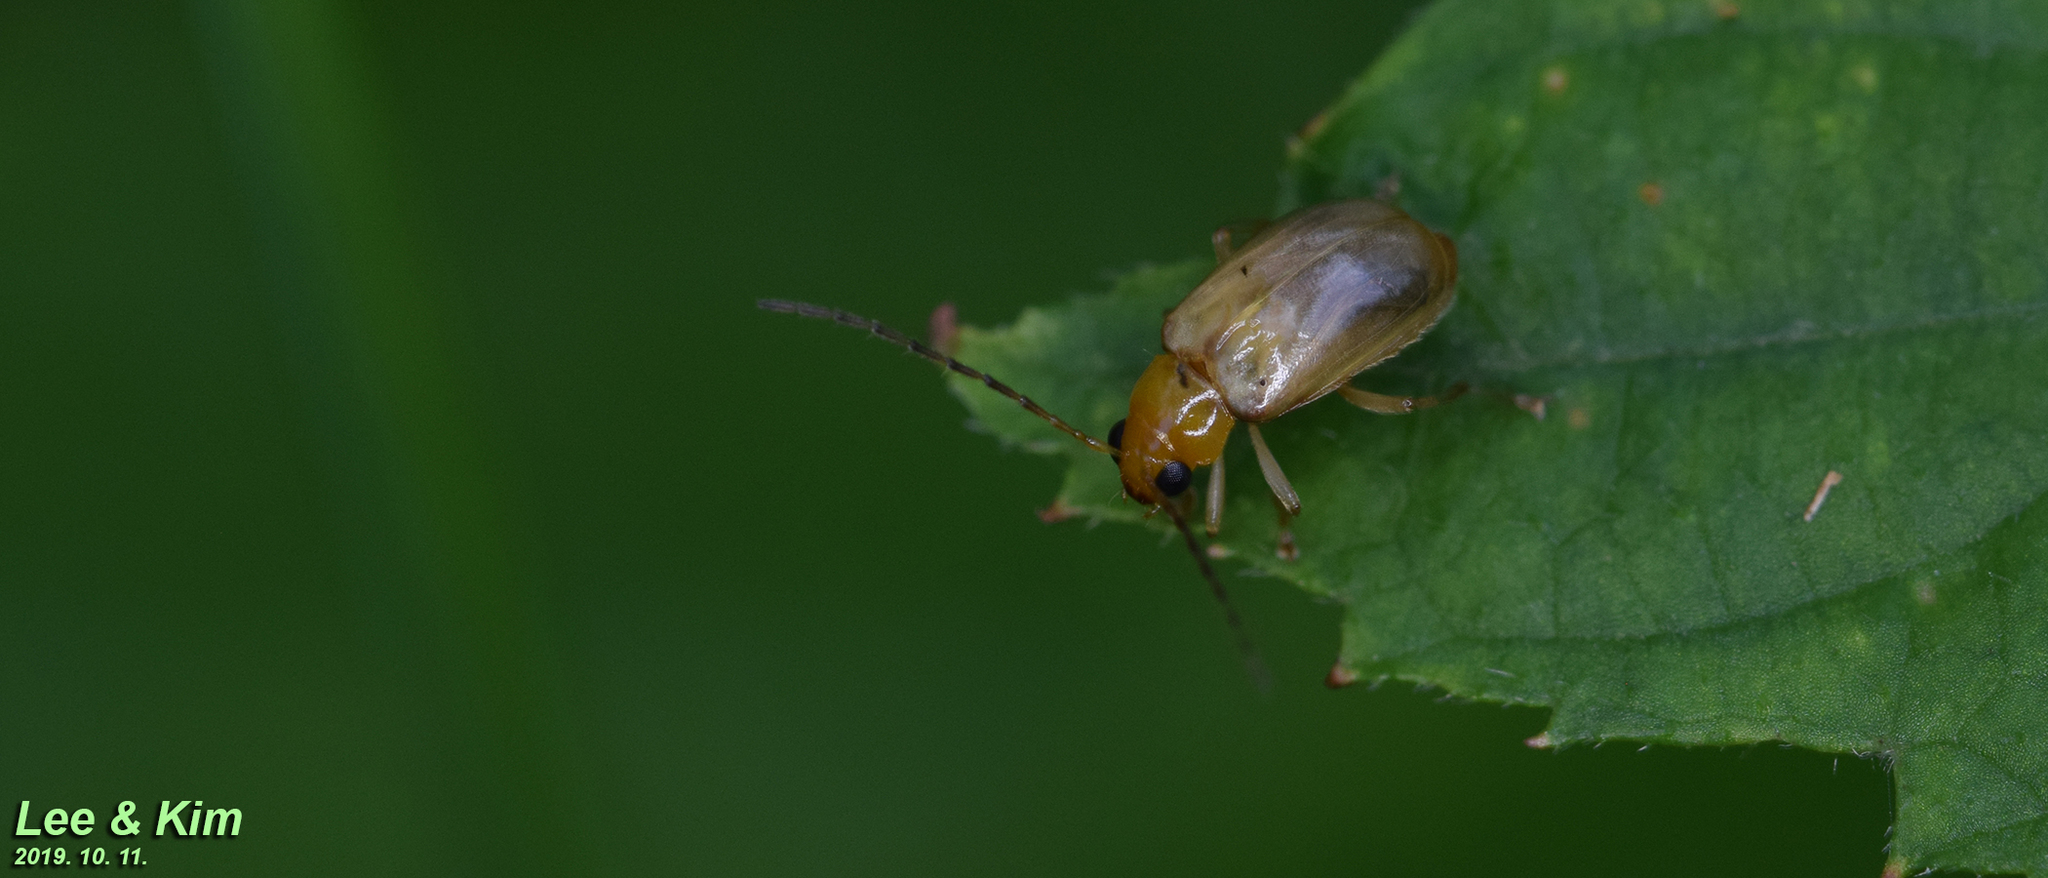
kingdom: Animalia
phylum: Arthropoda
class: Insecta
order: Coleoptera
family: Chrysomelidae
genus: Monolepta
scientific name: Monolepta shirozui
